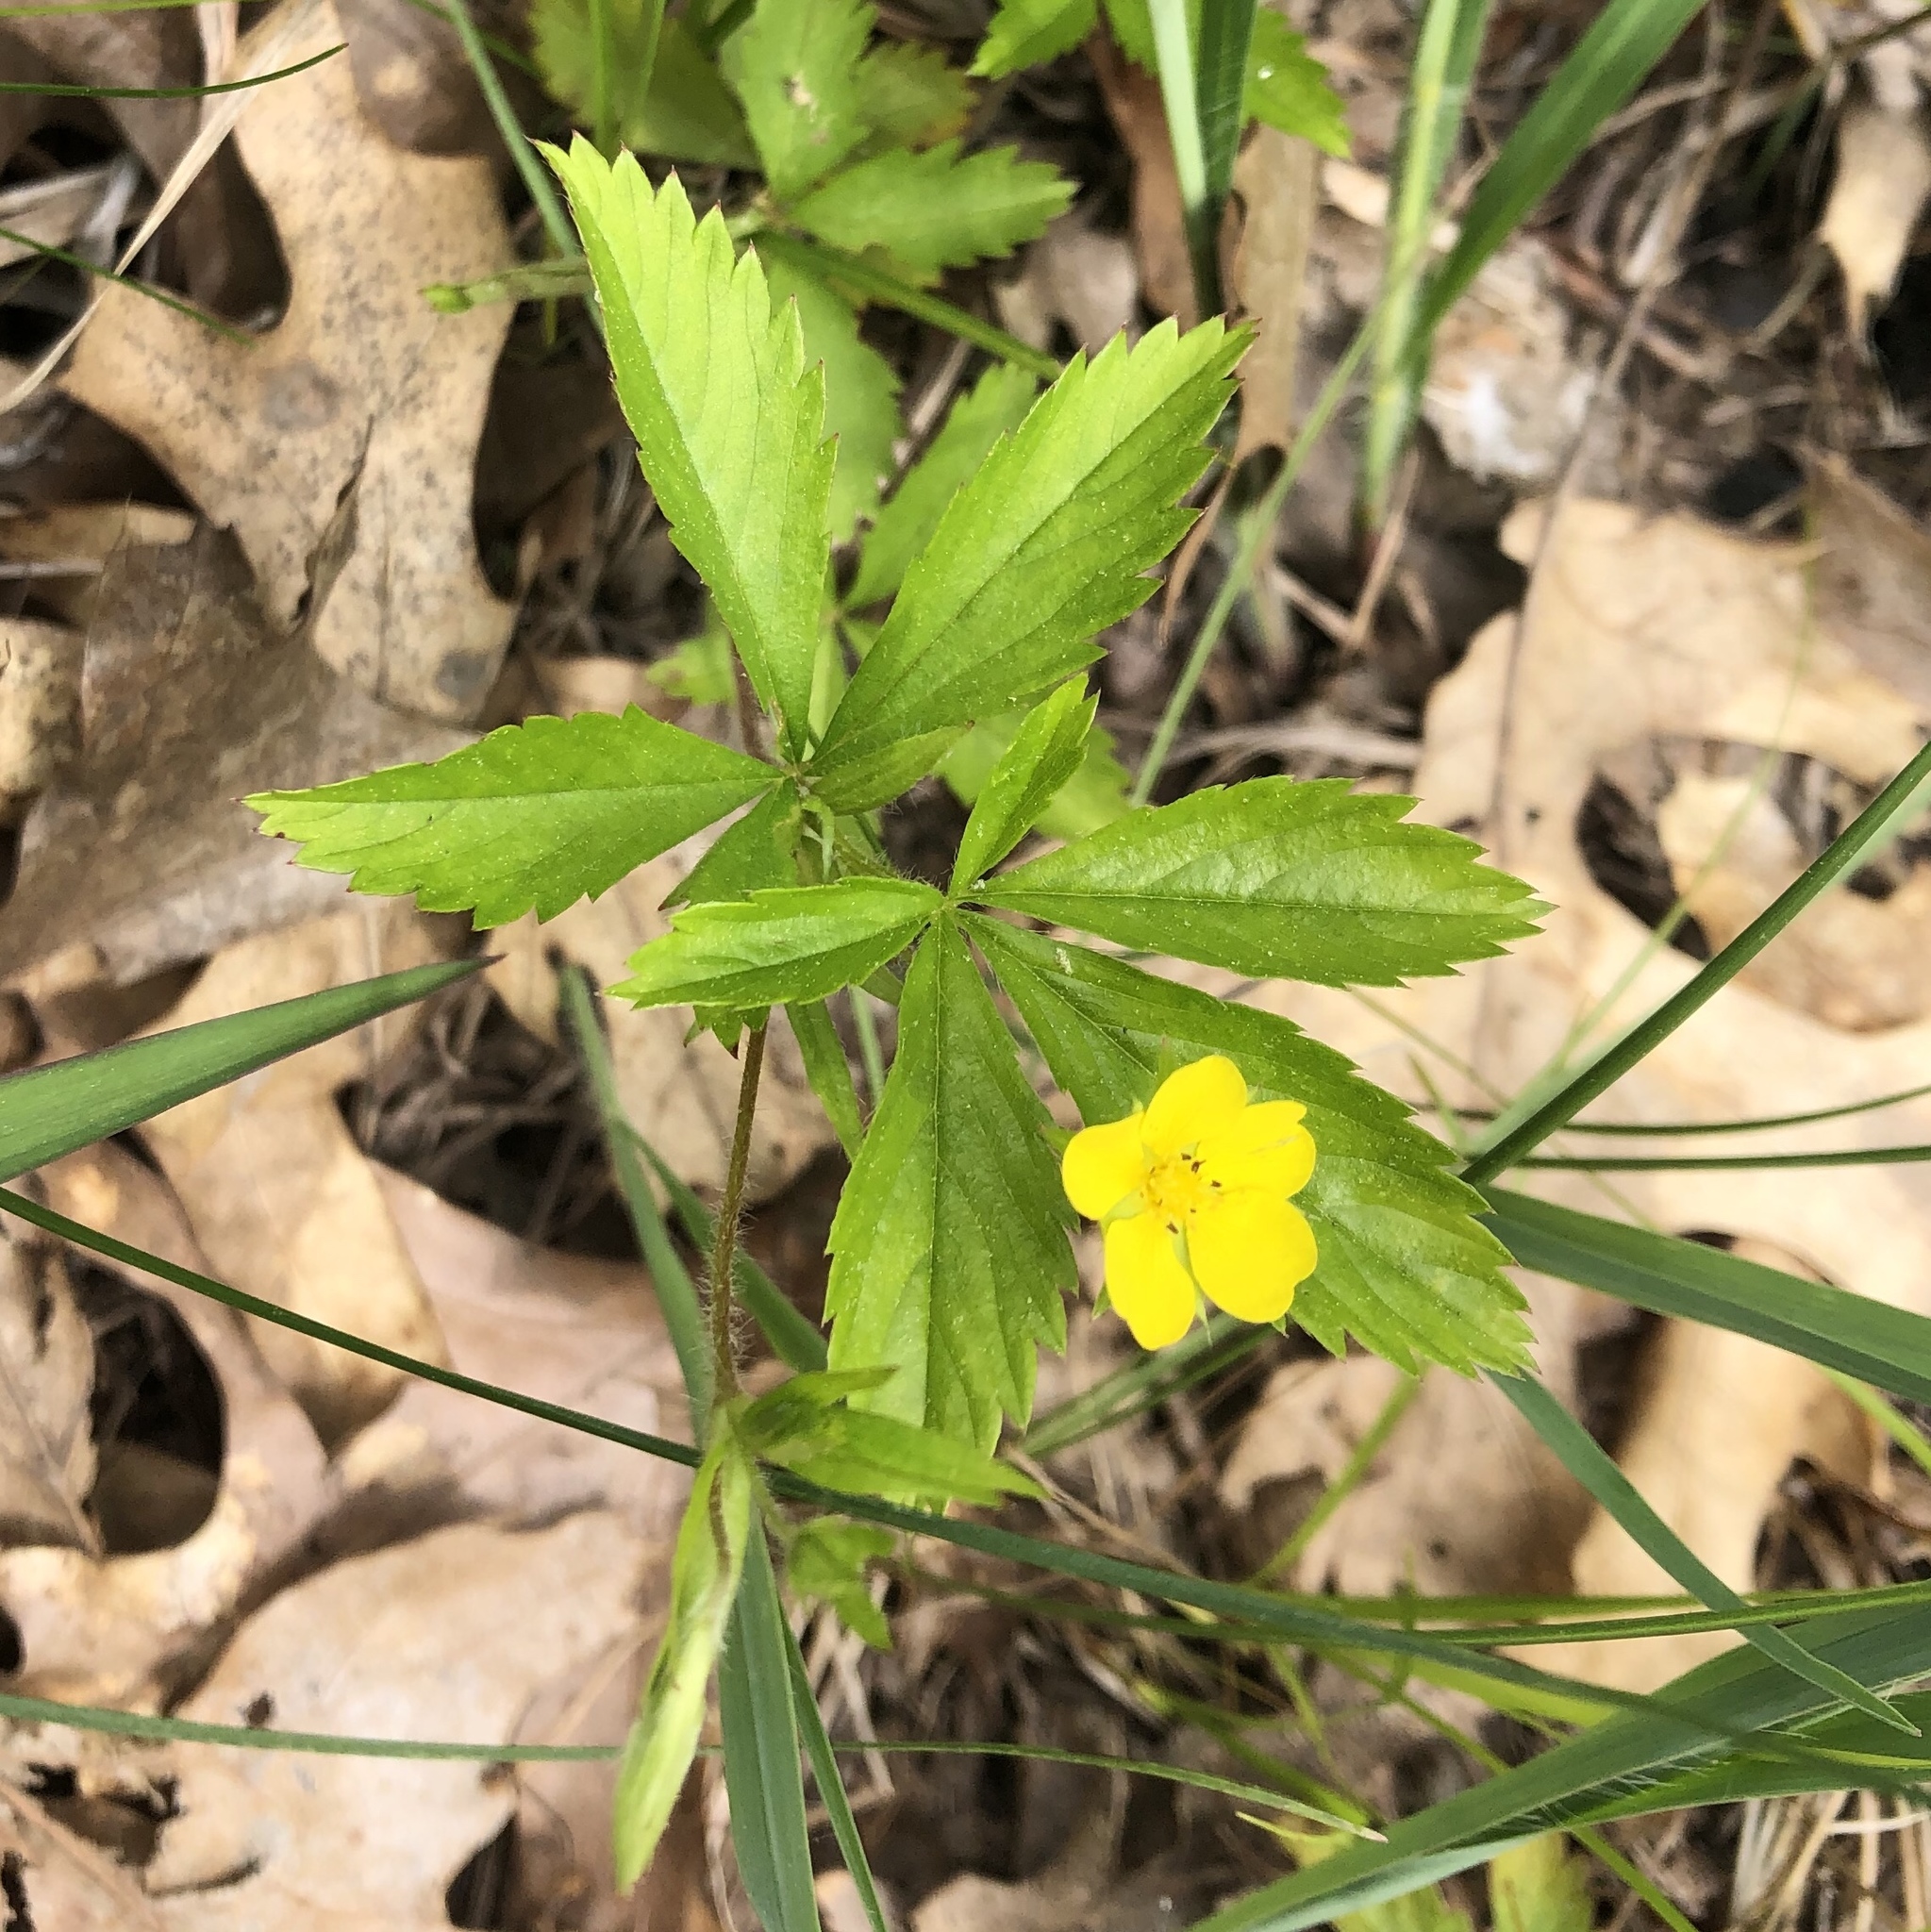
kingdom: Plantae
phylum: Tracheophyta
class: Magnoliopsida
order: Rosales
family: Rosaceae
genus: Potentilla
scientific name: Potentilla simplex
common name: Old field cinquefoil
